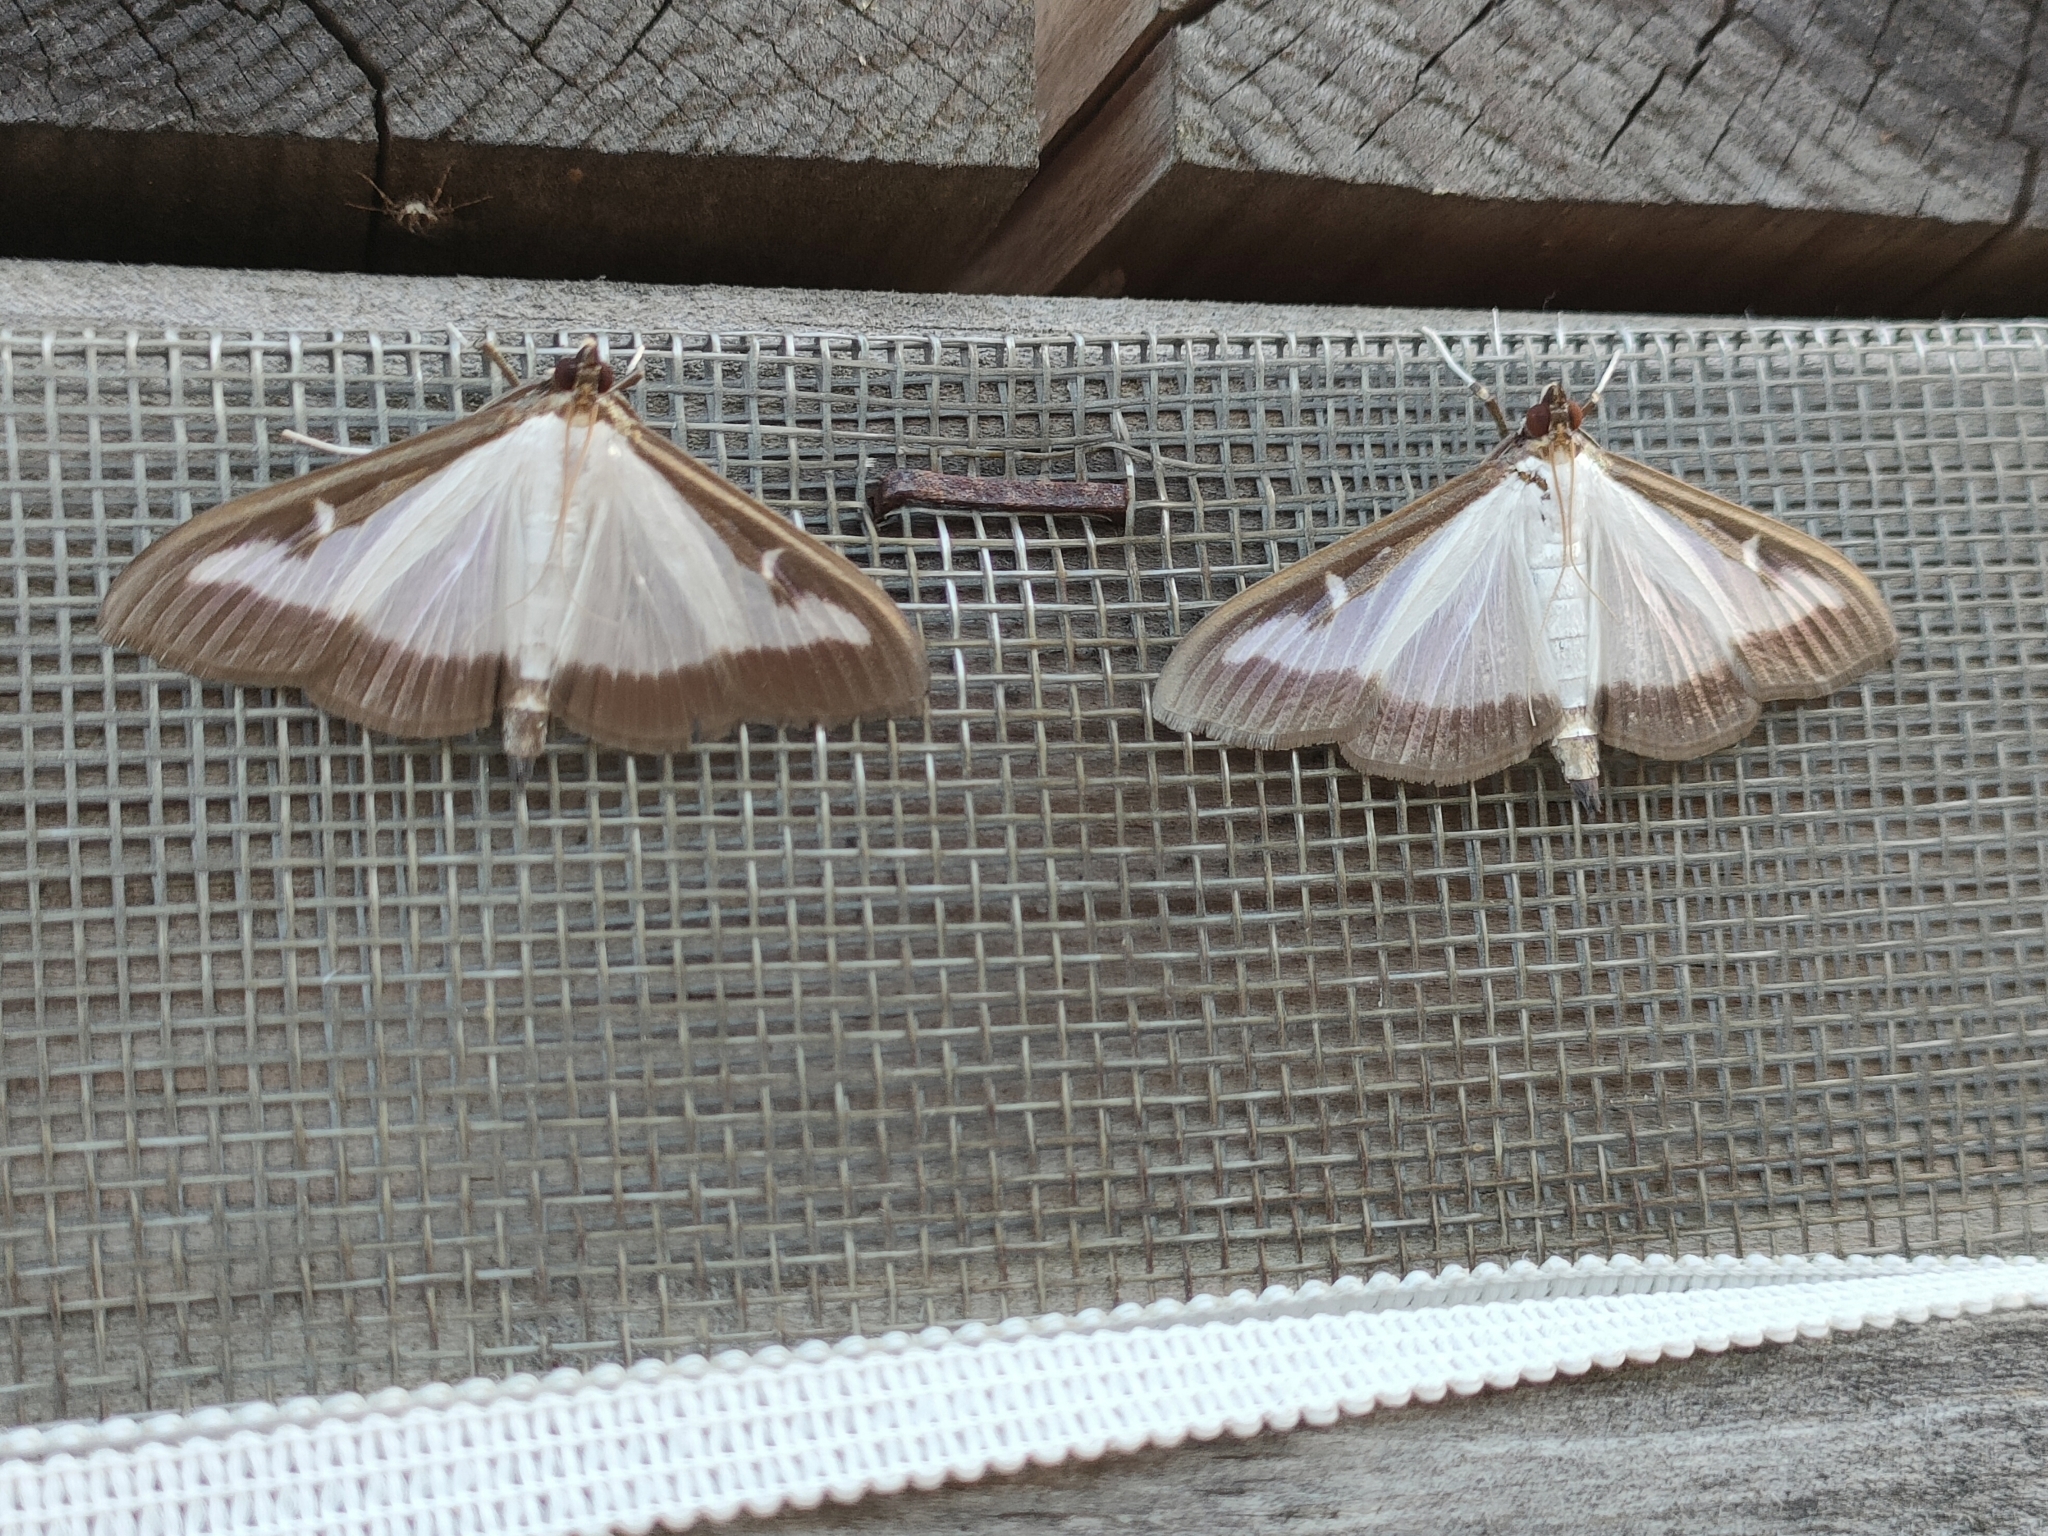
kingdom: Animalia
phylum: Arthropoda
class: Insecta
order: Lepidoptera
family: Crambidae
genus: Cydalima
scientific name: Cydalima perspectalis
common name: Box tree moth
